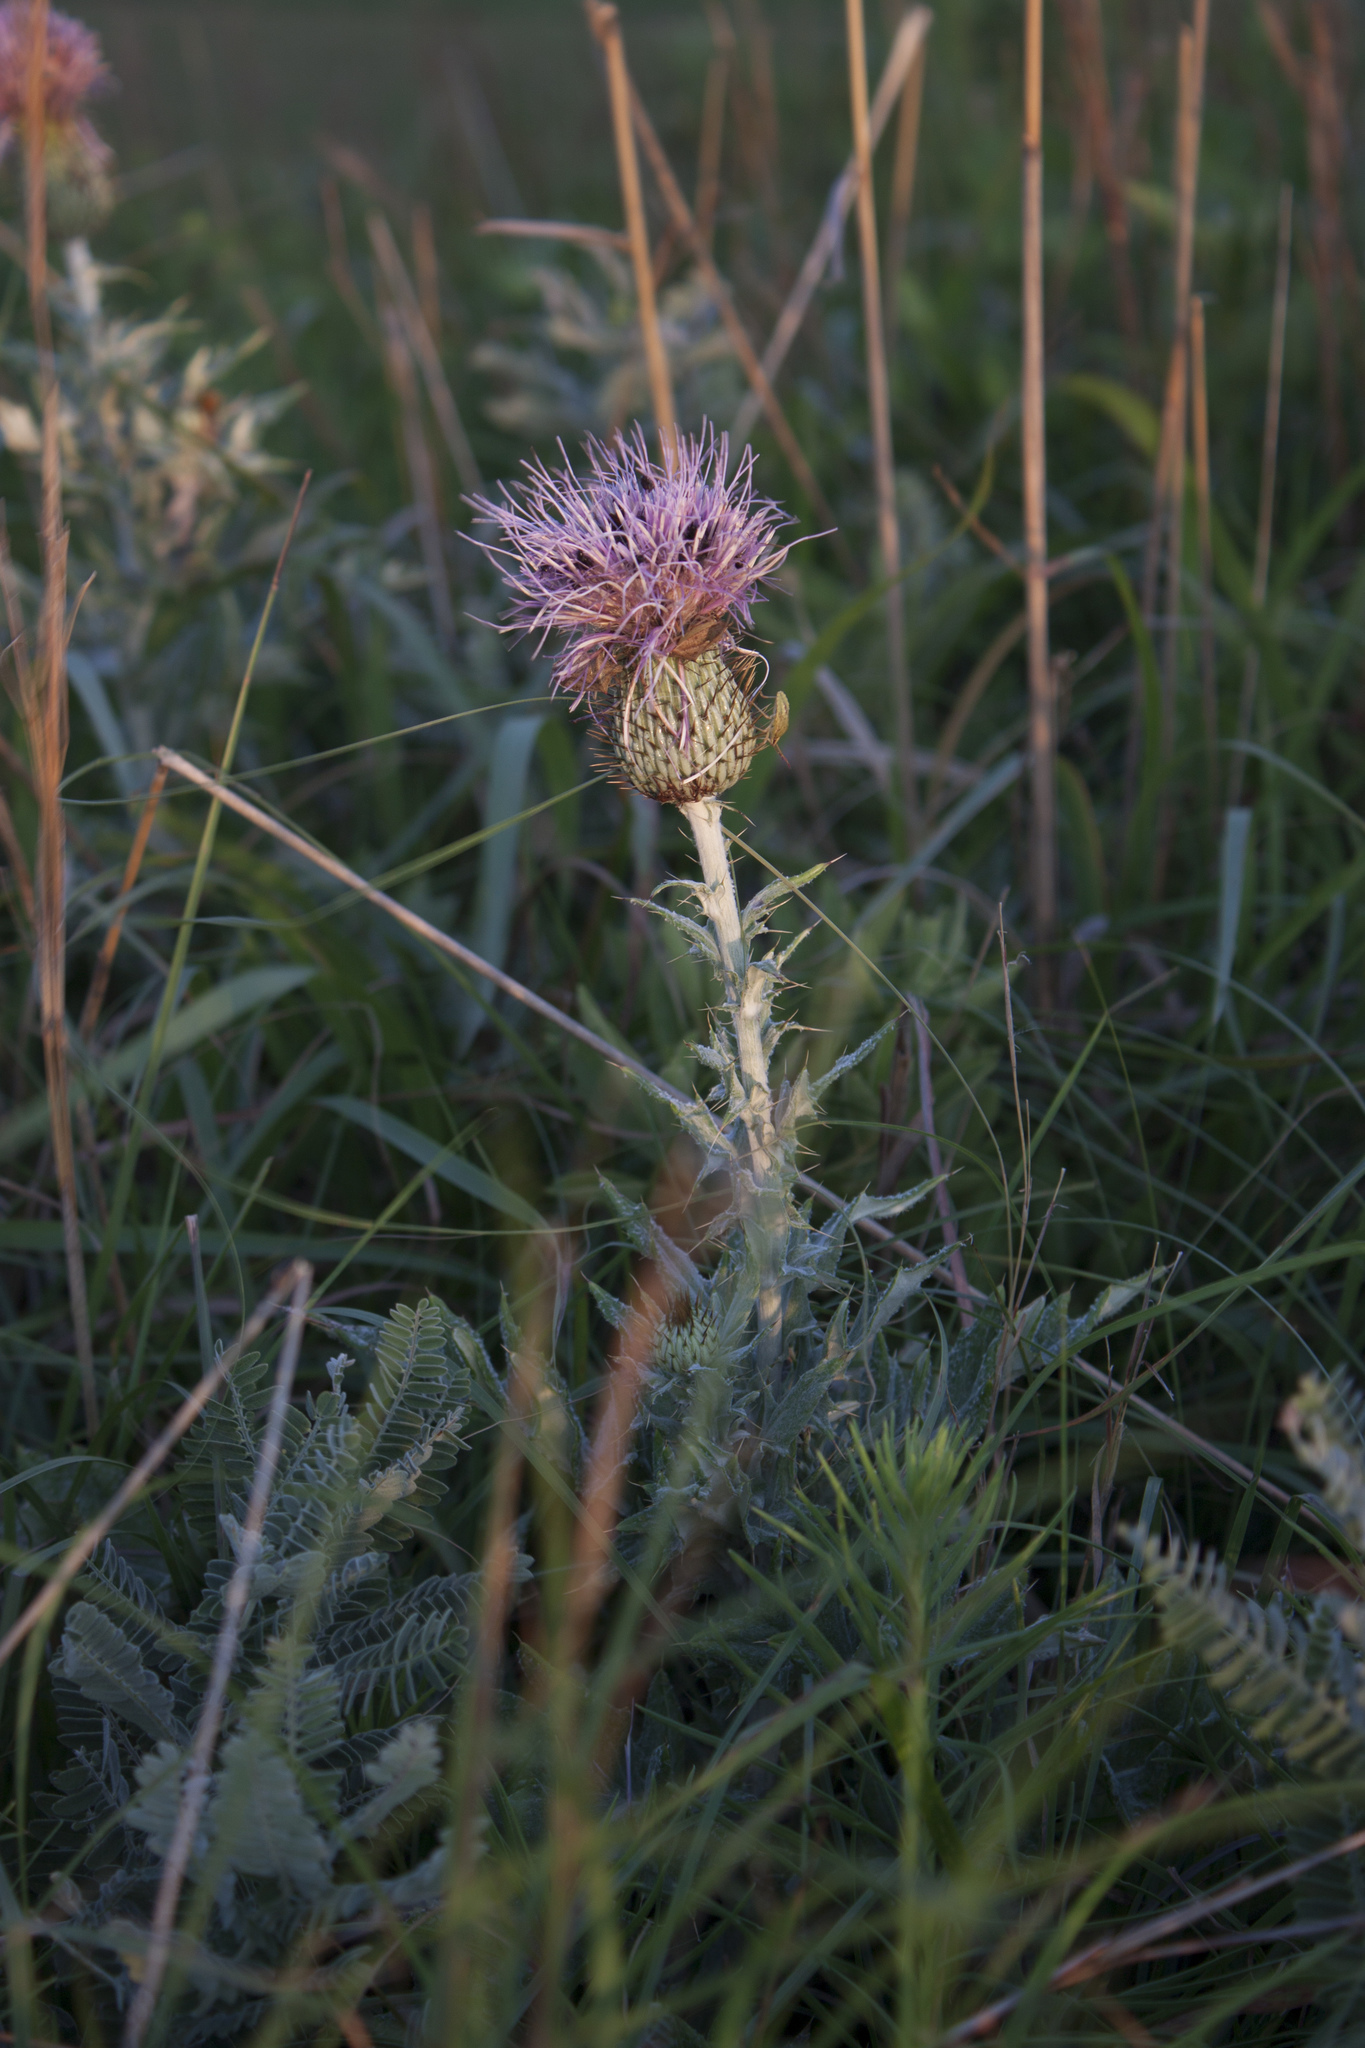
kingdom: Plantae
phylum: Tracheophyta
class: Magnoliopsida
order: Asterales
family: Asteraceae
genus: Cirsium
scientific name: Cirsium undulatum
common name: Pasture thistle
